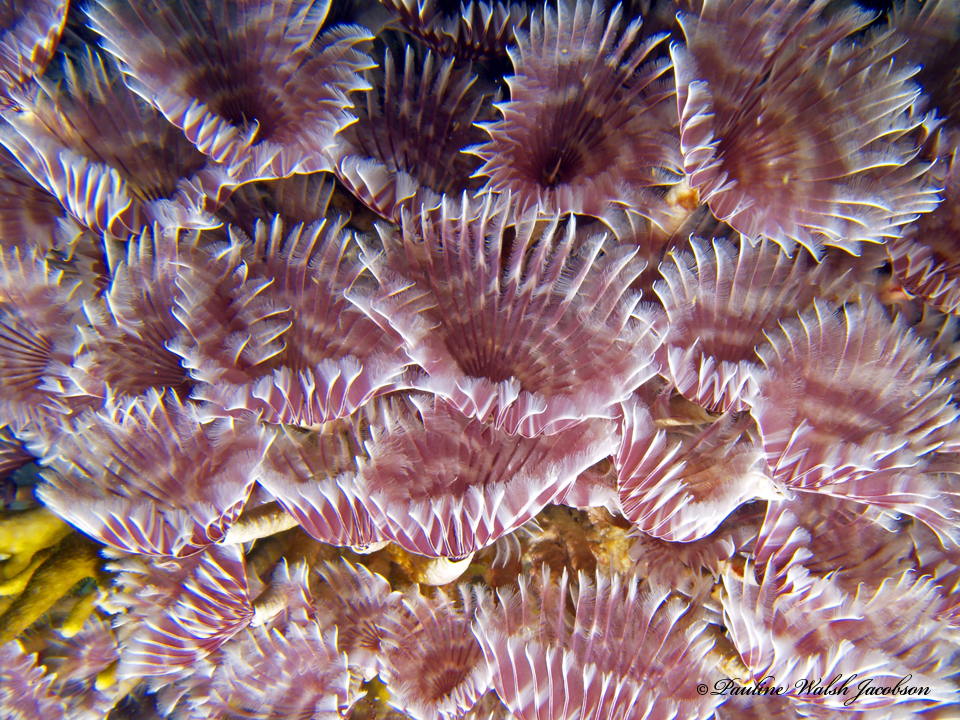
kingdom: Animalia
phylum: Annelida
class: Polychaeta
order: Sabellida
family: Sabellidae
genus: Bispira
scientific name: Bispira brunnea
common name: Social feather duster
